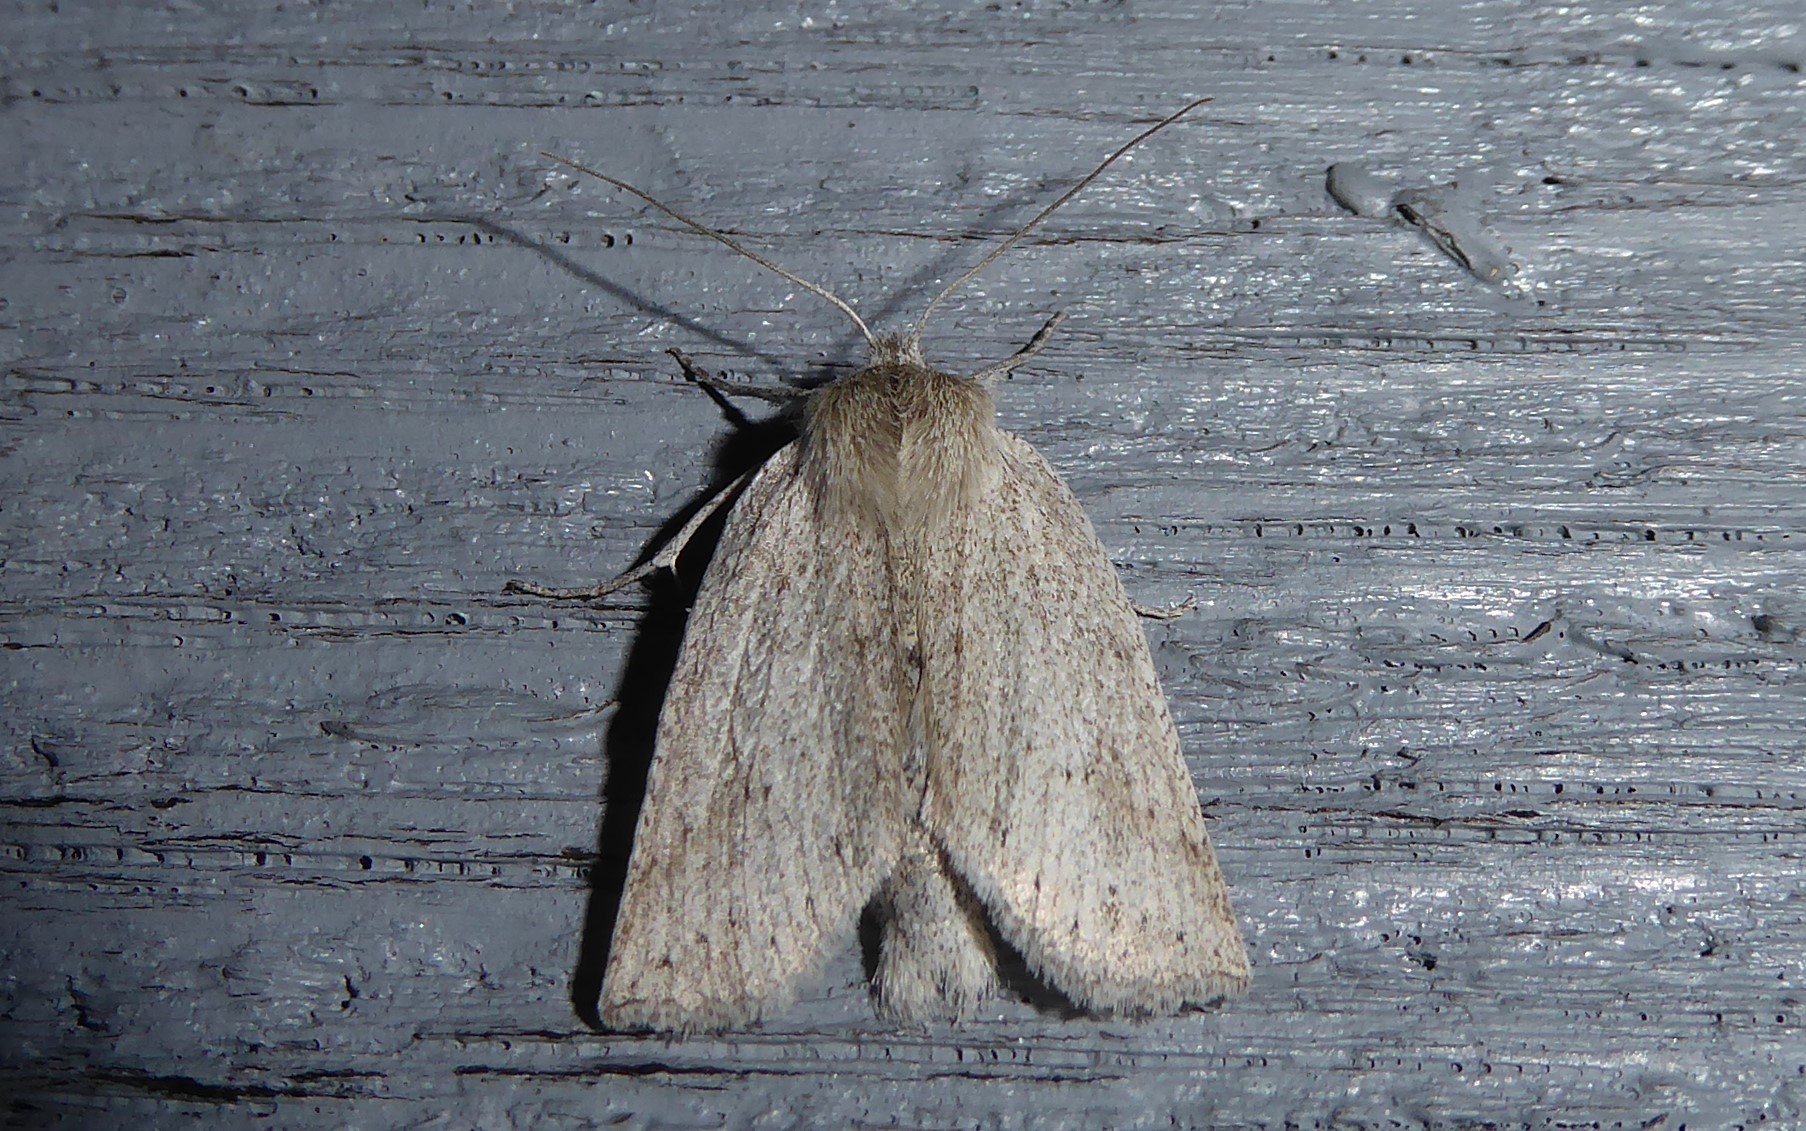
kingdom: Animalia
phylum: Arthropoda
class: Insecta
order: Lepidoptera
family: Geometridae
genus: Declana
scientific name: Declana leptomera
